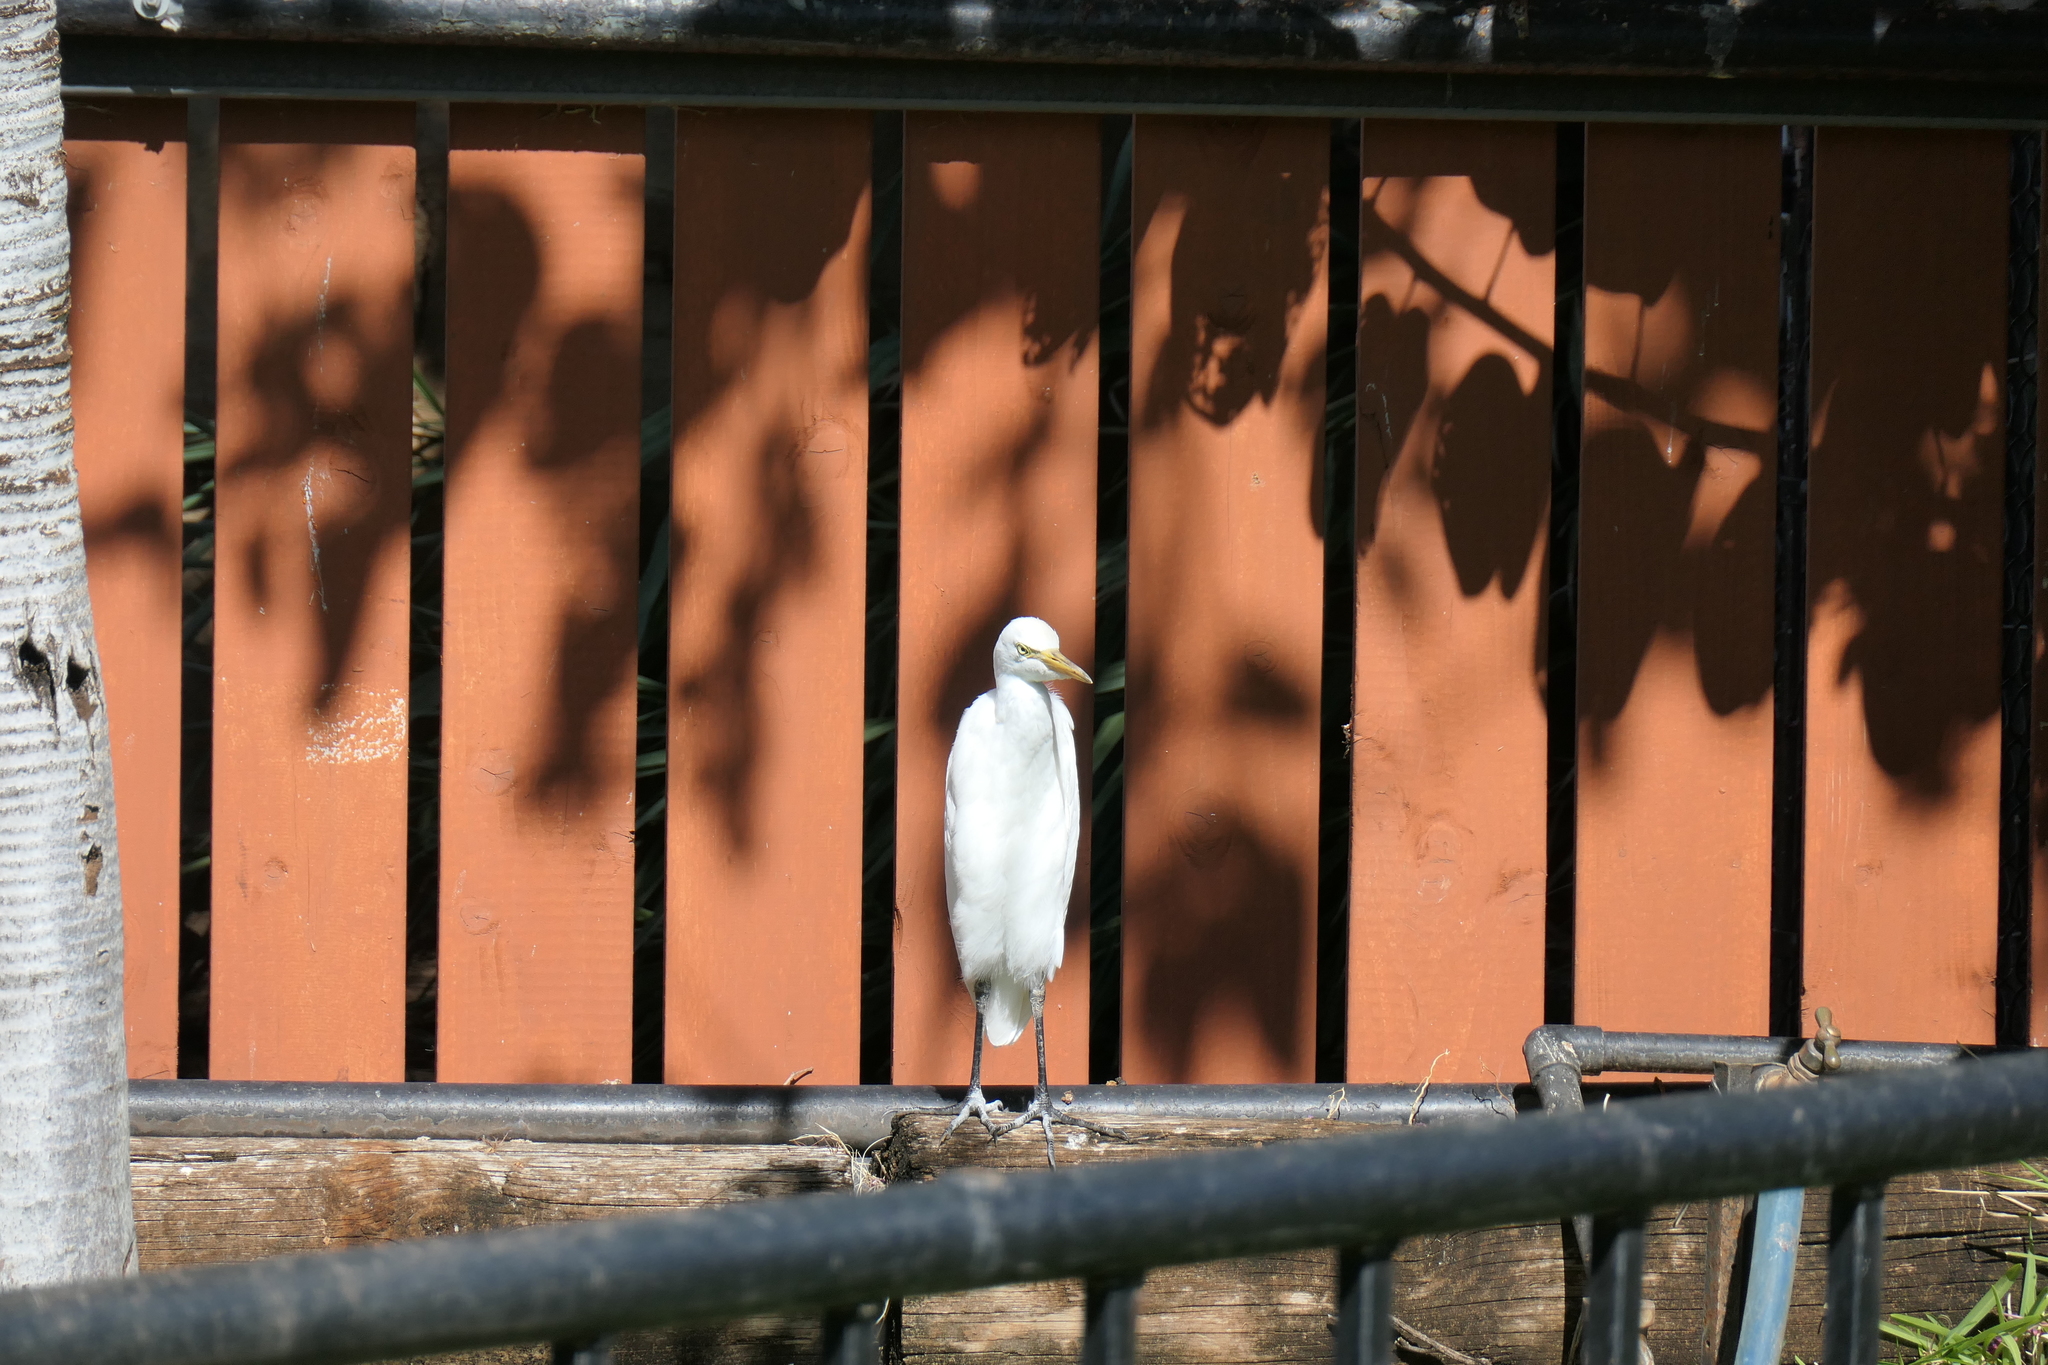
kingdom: Animalia
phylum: Chordata
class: Aves
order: Pelecaniformes
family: Ardeidae
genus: Bubulcus
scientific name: Bubulcus ibis
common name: Cattle egret
